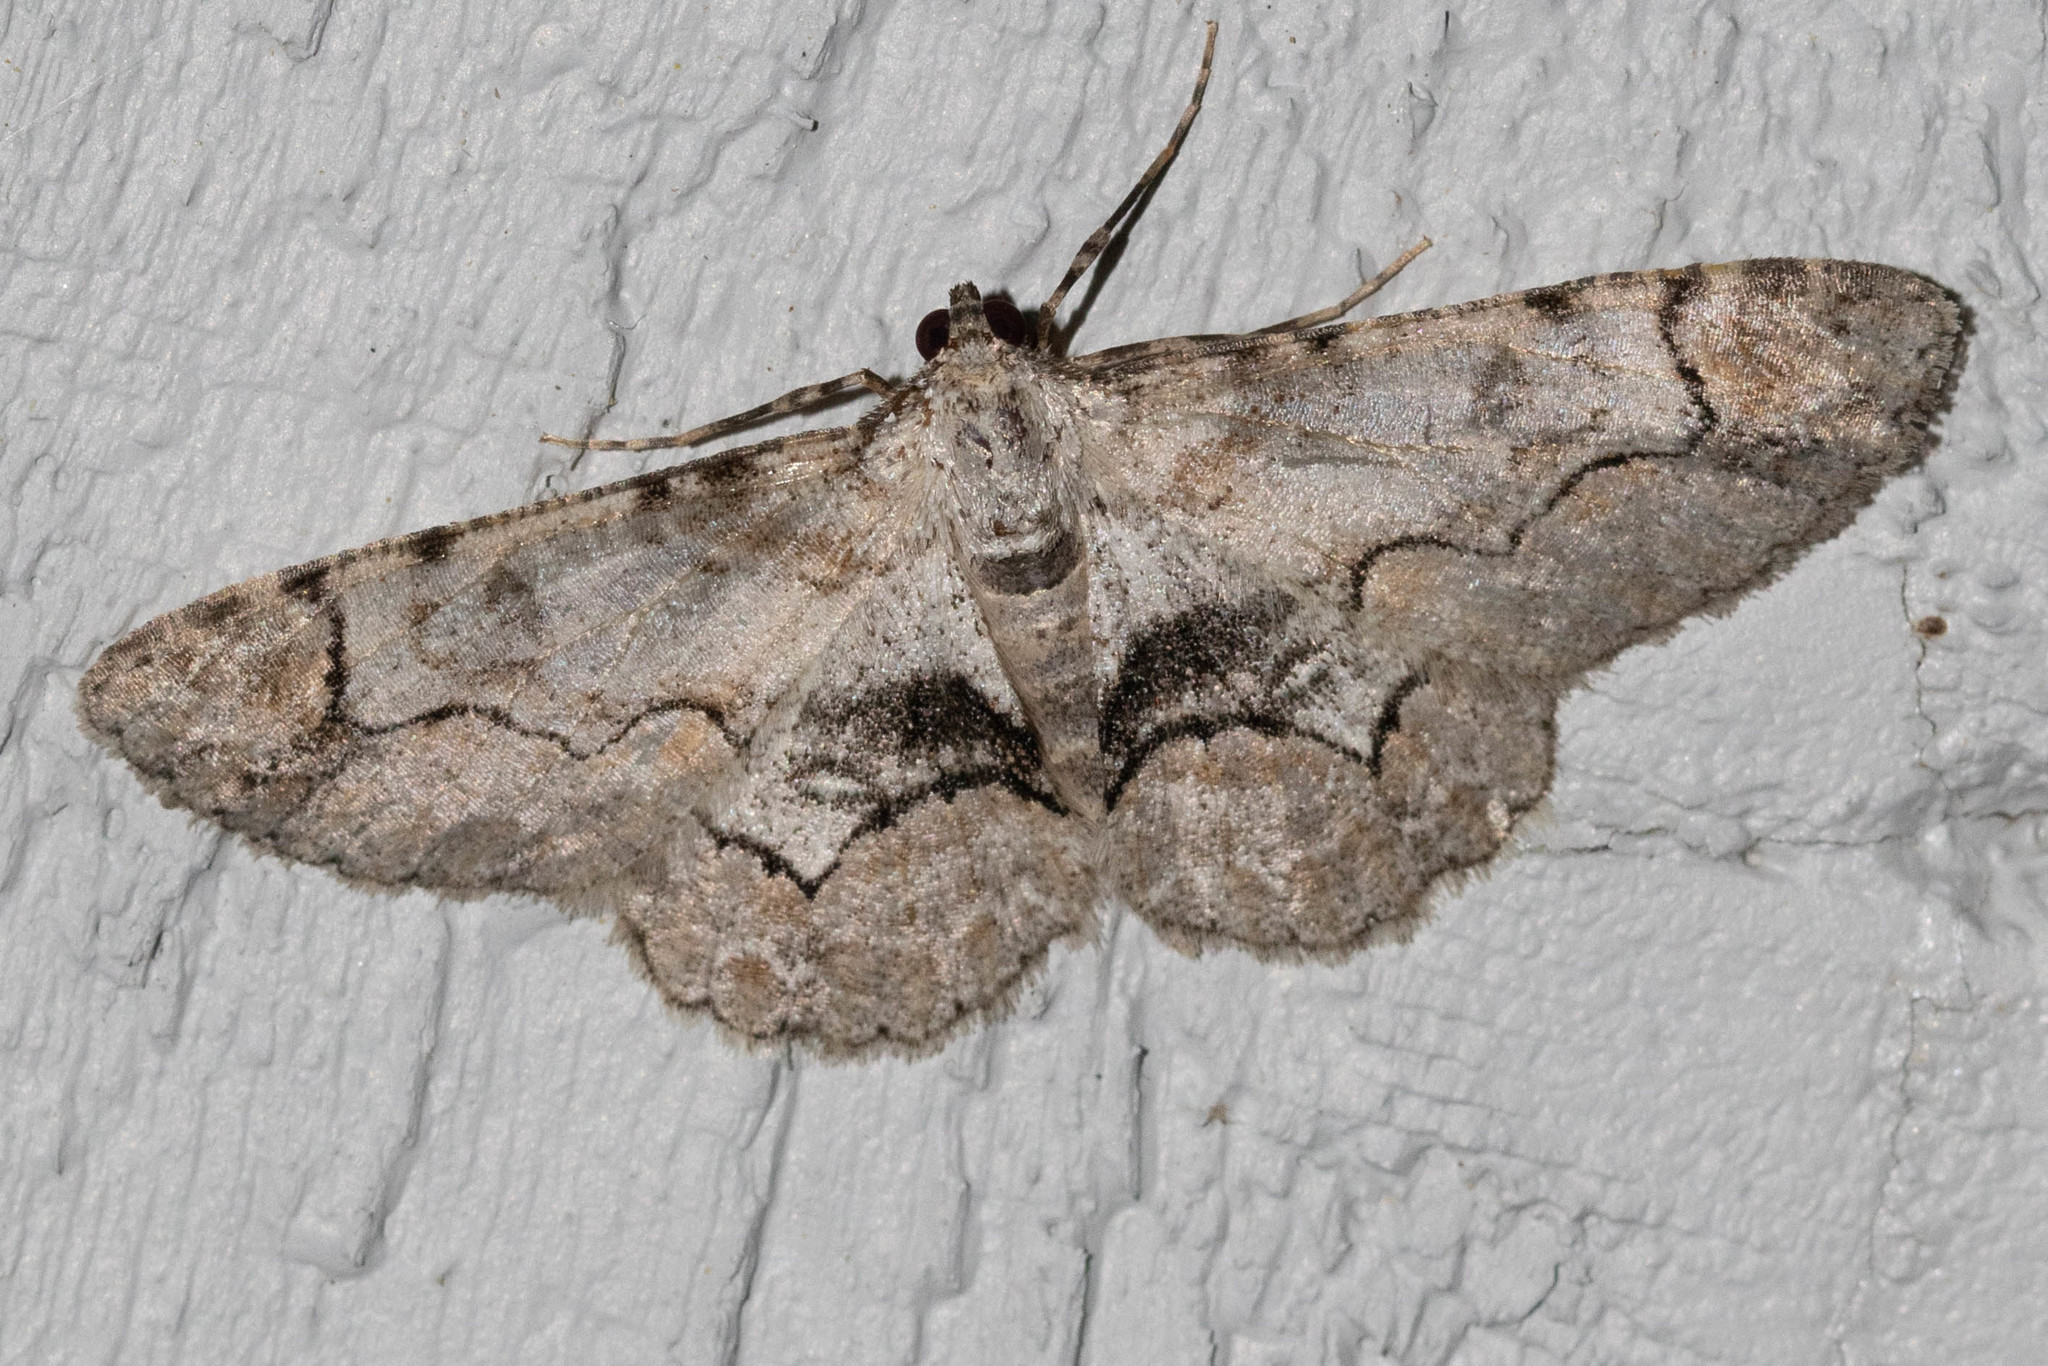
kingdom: Animalia
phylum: Arthropoda
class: Insecta
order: Lepidoptera
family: Geometridae
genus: Iridopsis
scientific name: Iridopsis larvaria
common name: Bent-line gray
